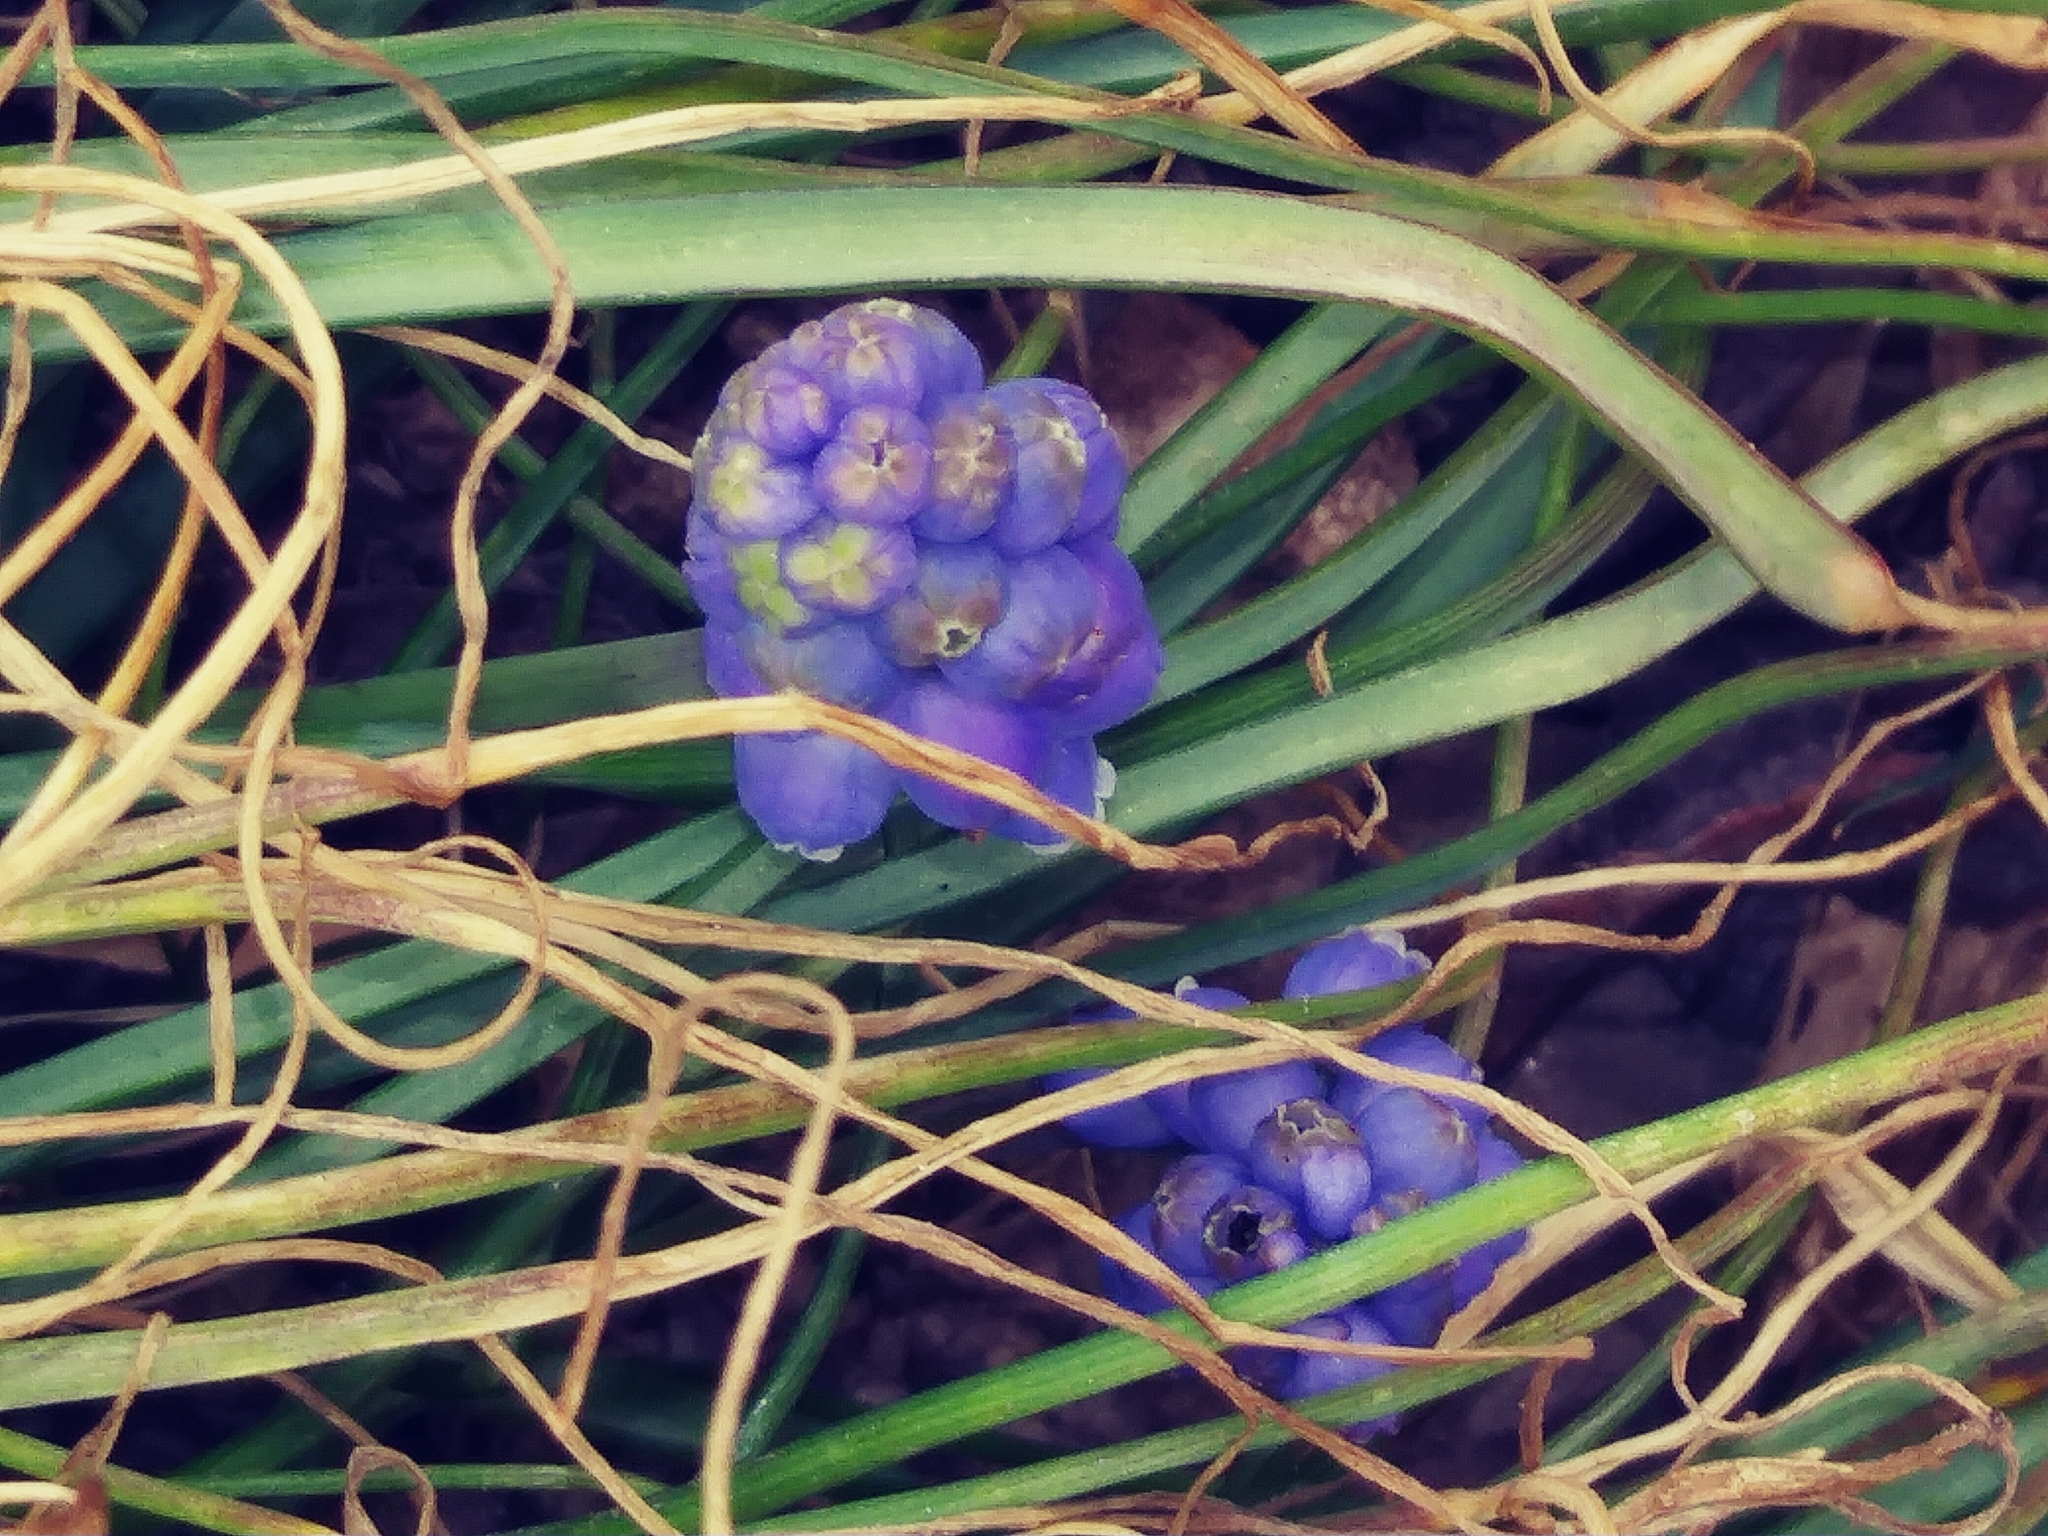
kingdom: Plantae
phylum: Tracheophyta
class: Liliopsida
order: Asparagales
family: Asparagaceae
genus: Muscari
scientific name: Muscari neglectum
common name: Grape-hyacinth
